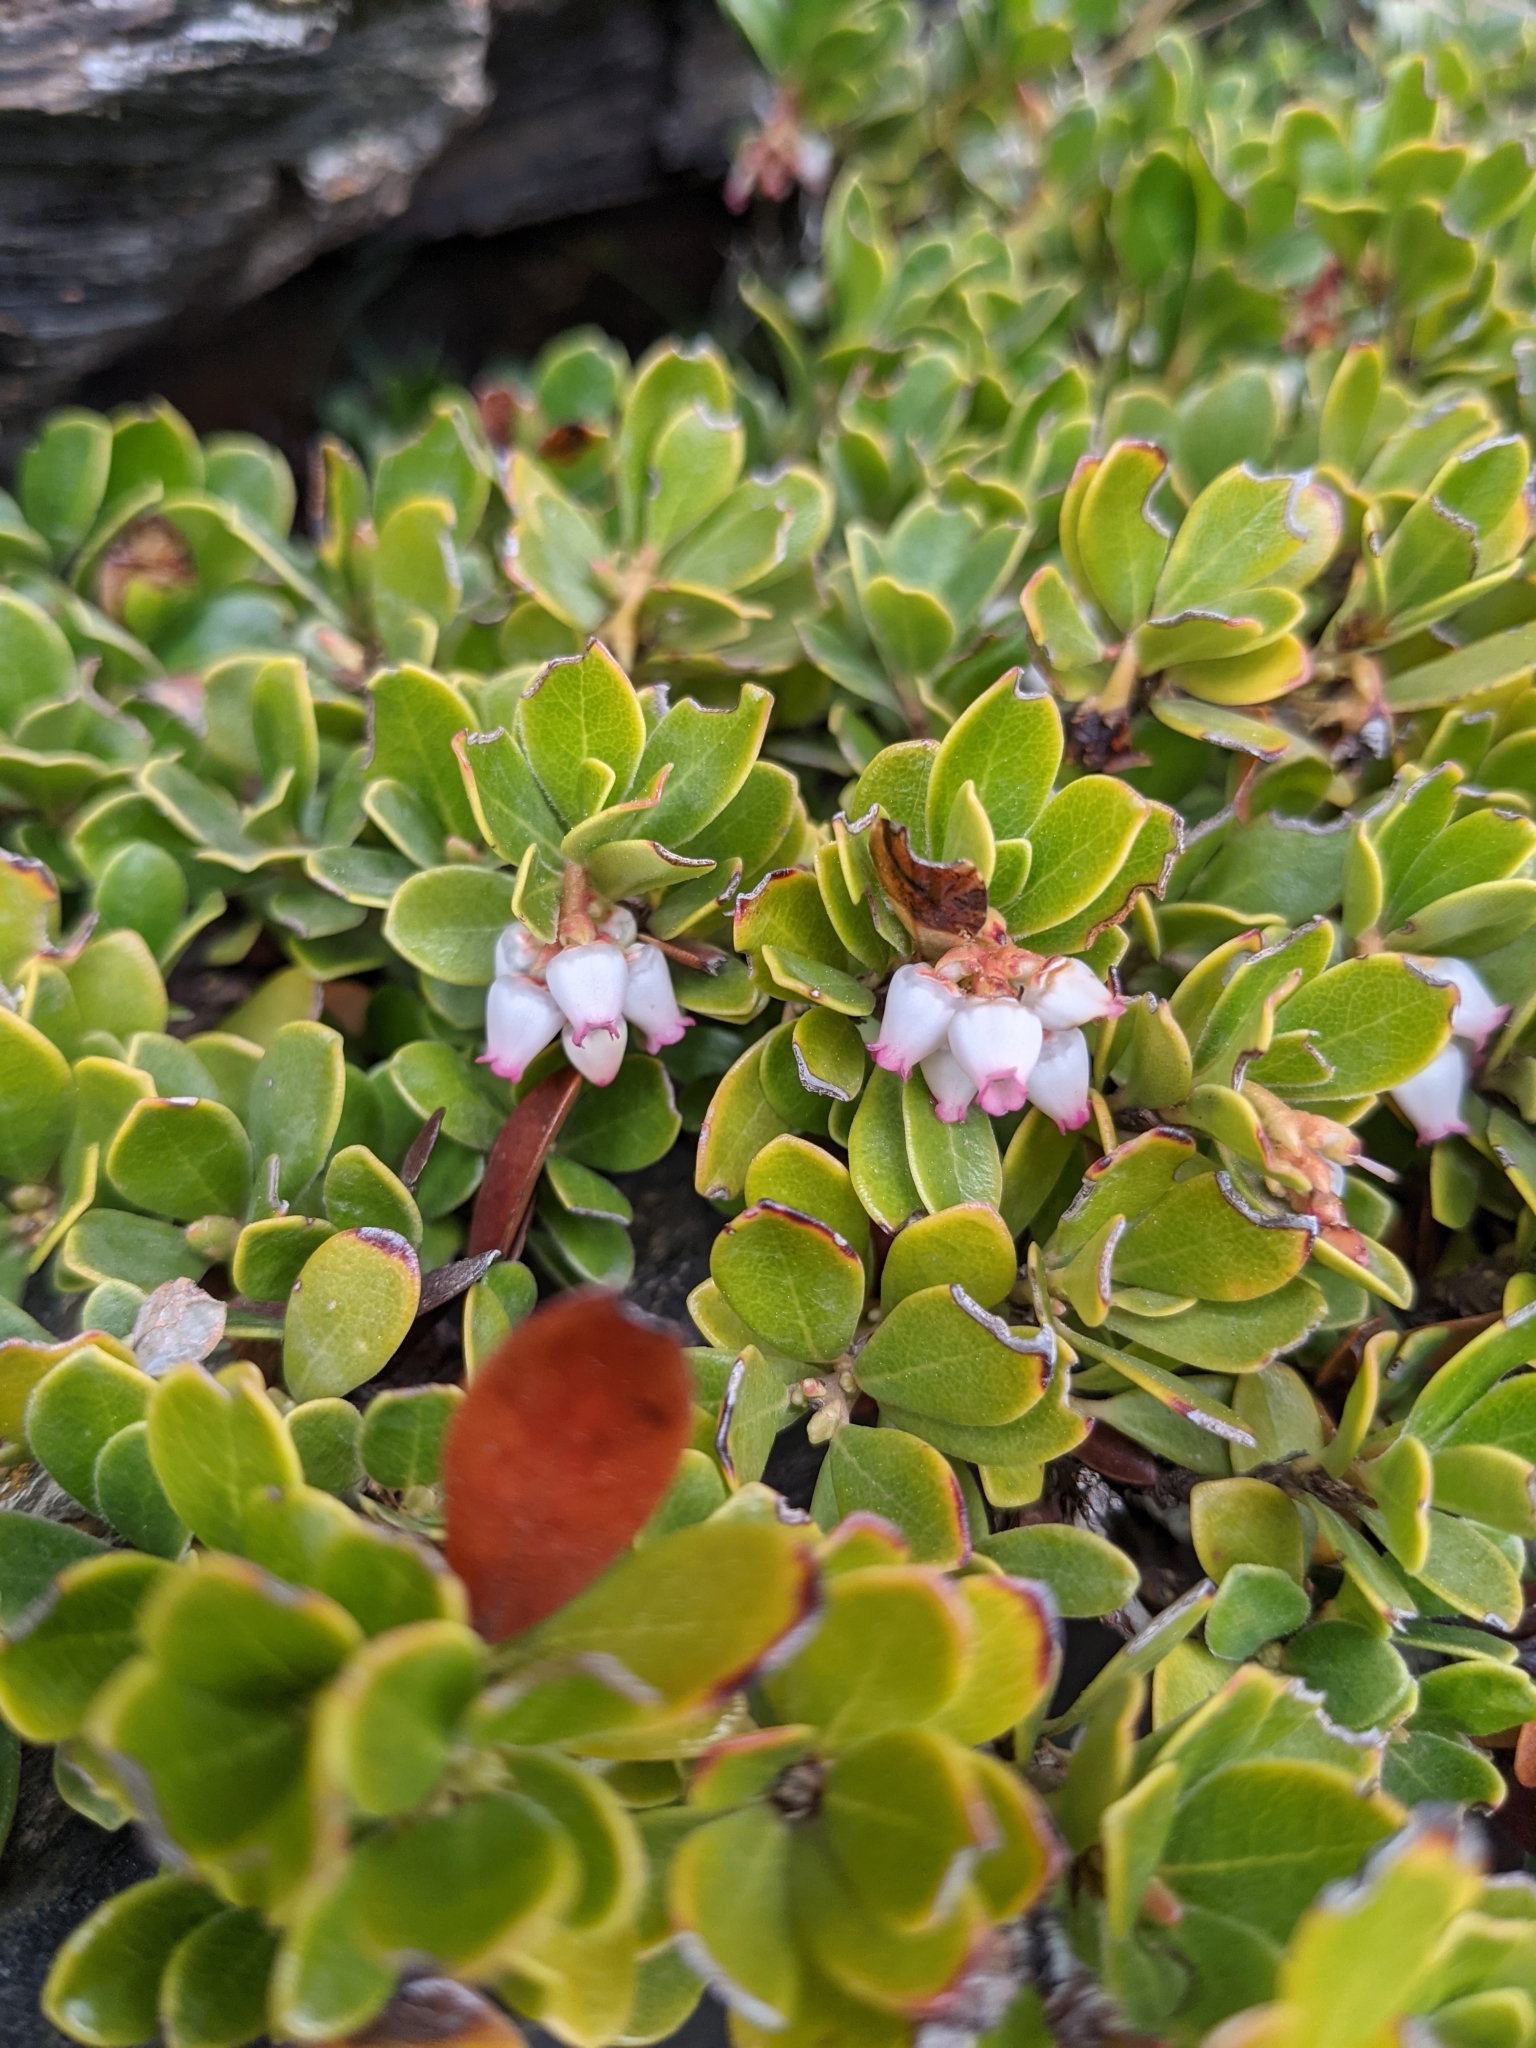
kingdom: Plantae
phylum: Tracheophyta
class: Magnoliopsida
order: Ericales
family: Ericaceae
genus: Arctostaphylos
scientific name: Arctostaphylos uva-ursi
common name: Bearberry
